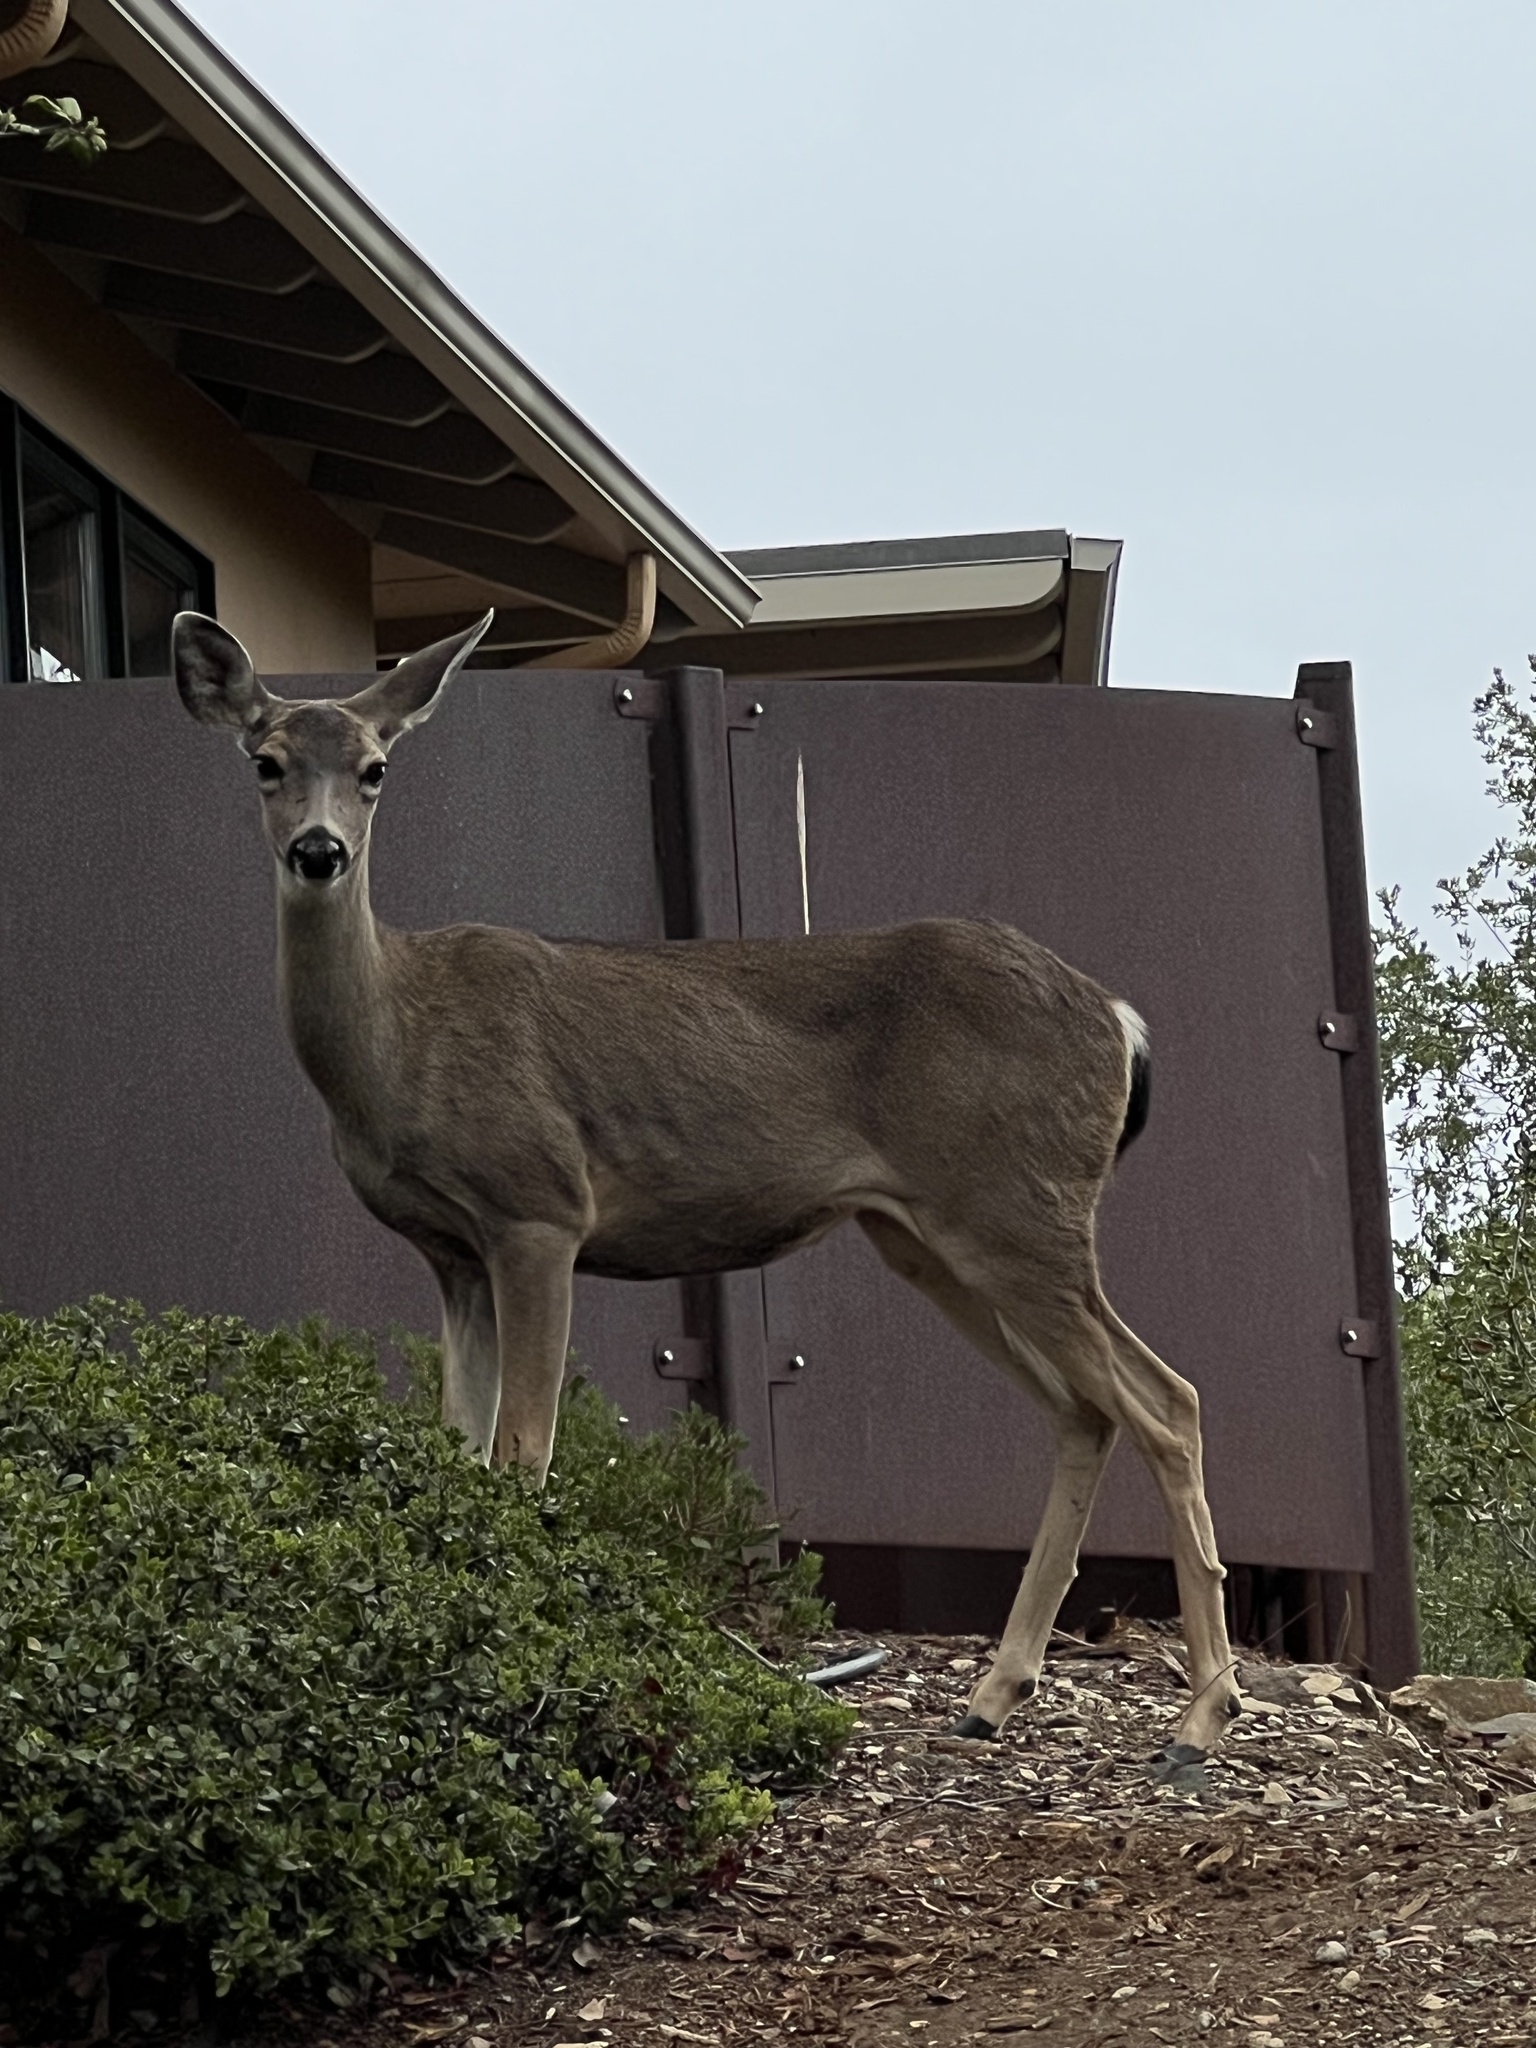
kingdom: Animalia
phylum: Chordata
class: Mammalia
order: Artiodactyla
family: Cervidae
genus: Odocoileus
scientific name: Odocoileus hemionus
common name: Mule deer
